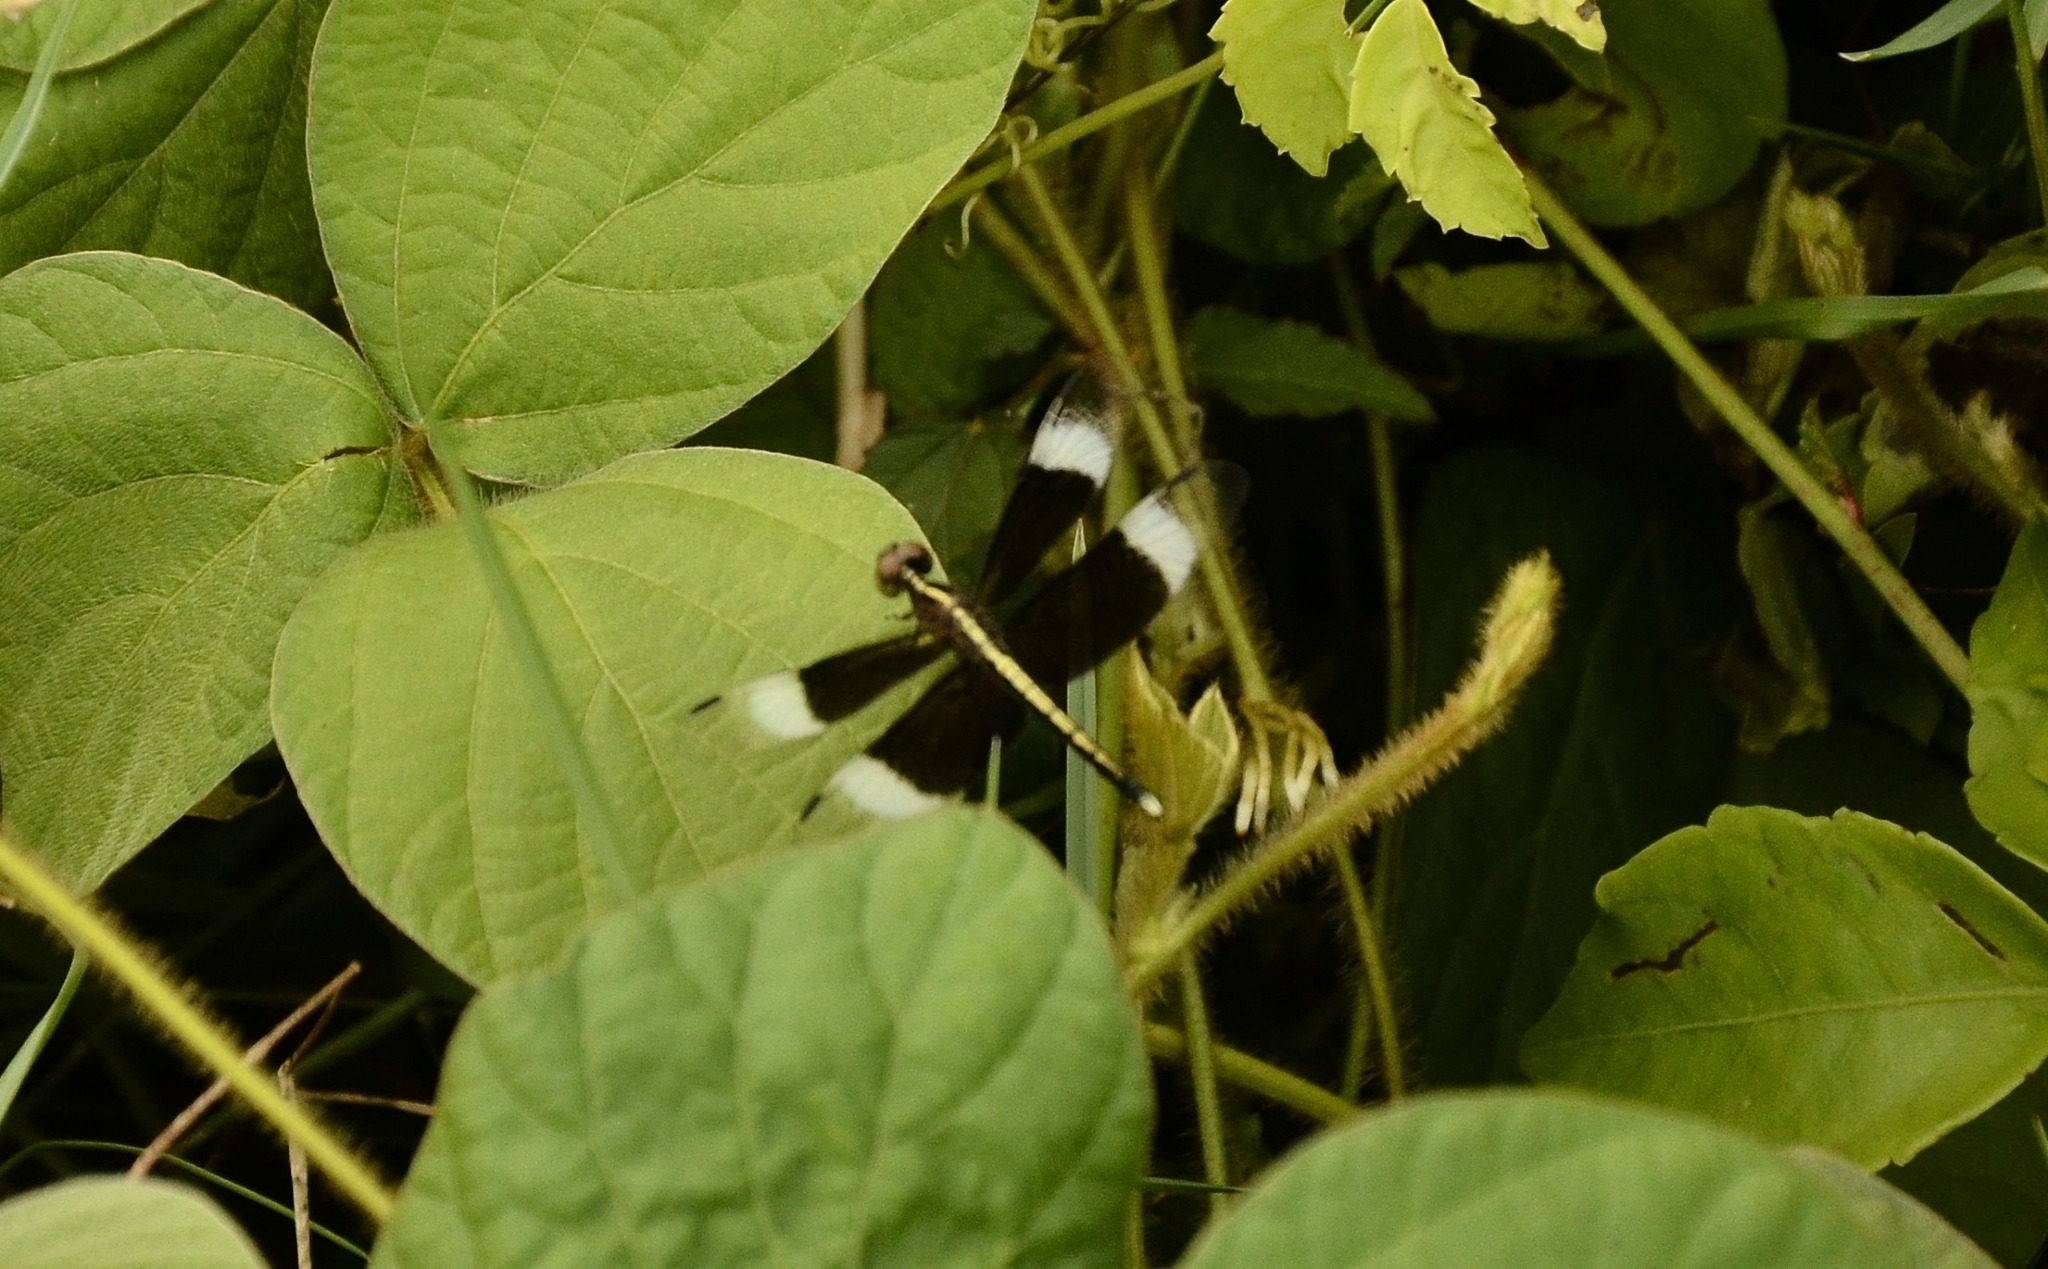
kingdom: Animalia
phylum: Arthropoda
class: Insecta
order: Odonata
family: Libellulidae
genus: Neurothemis
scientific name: Neurothemis tullia
